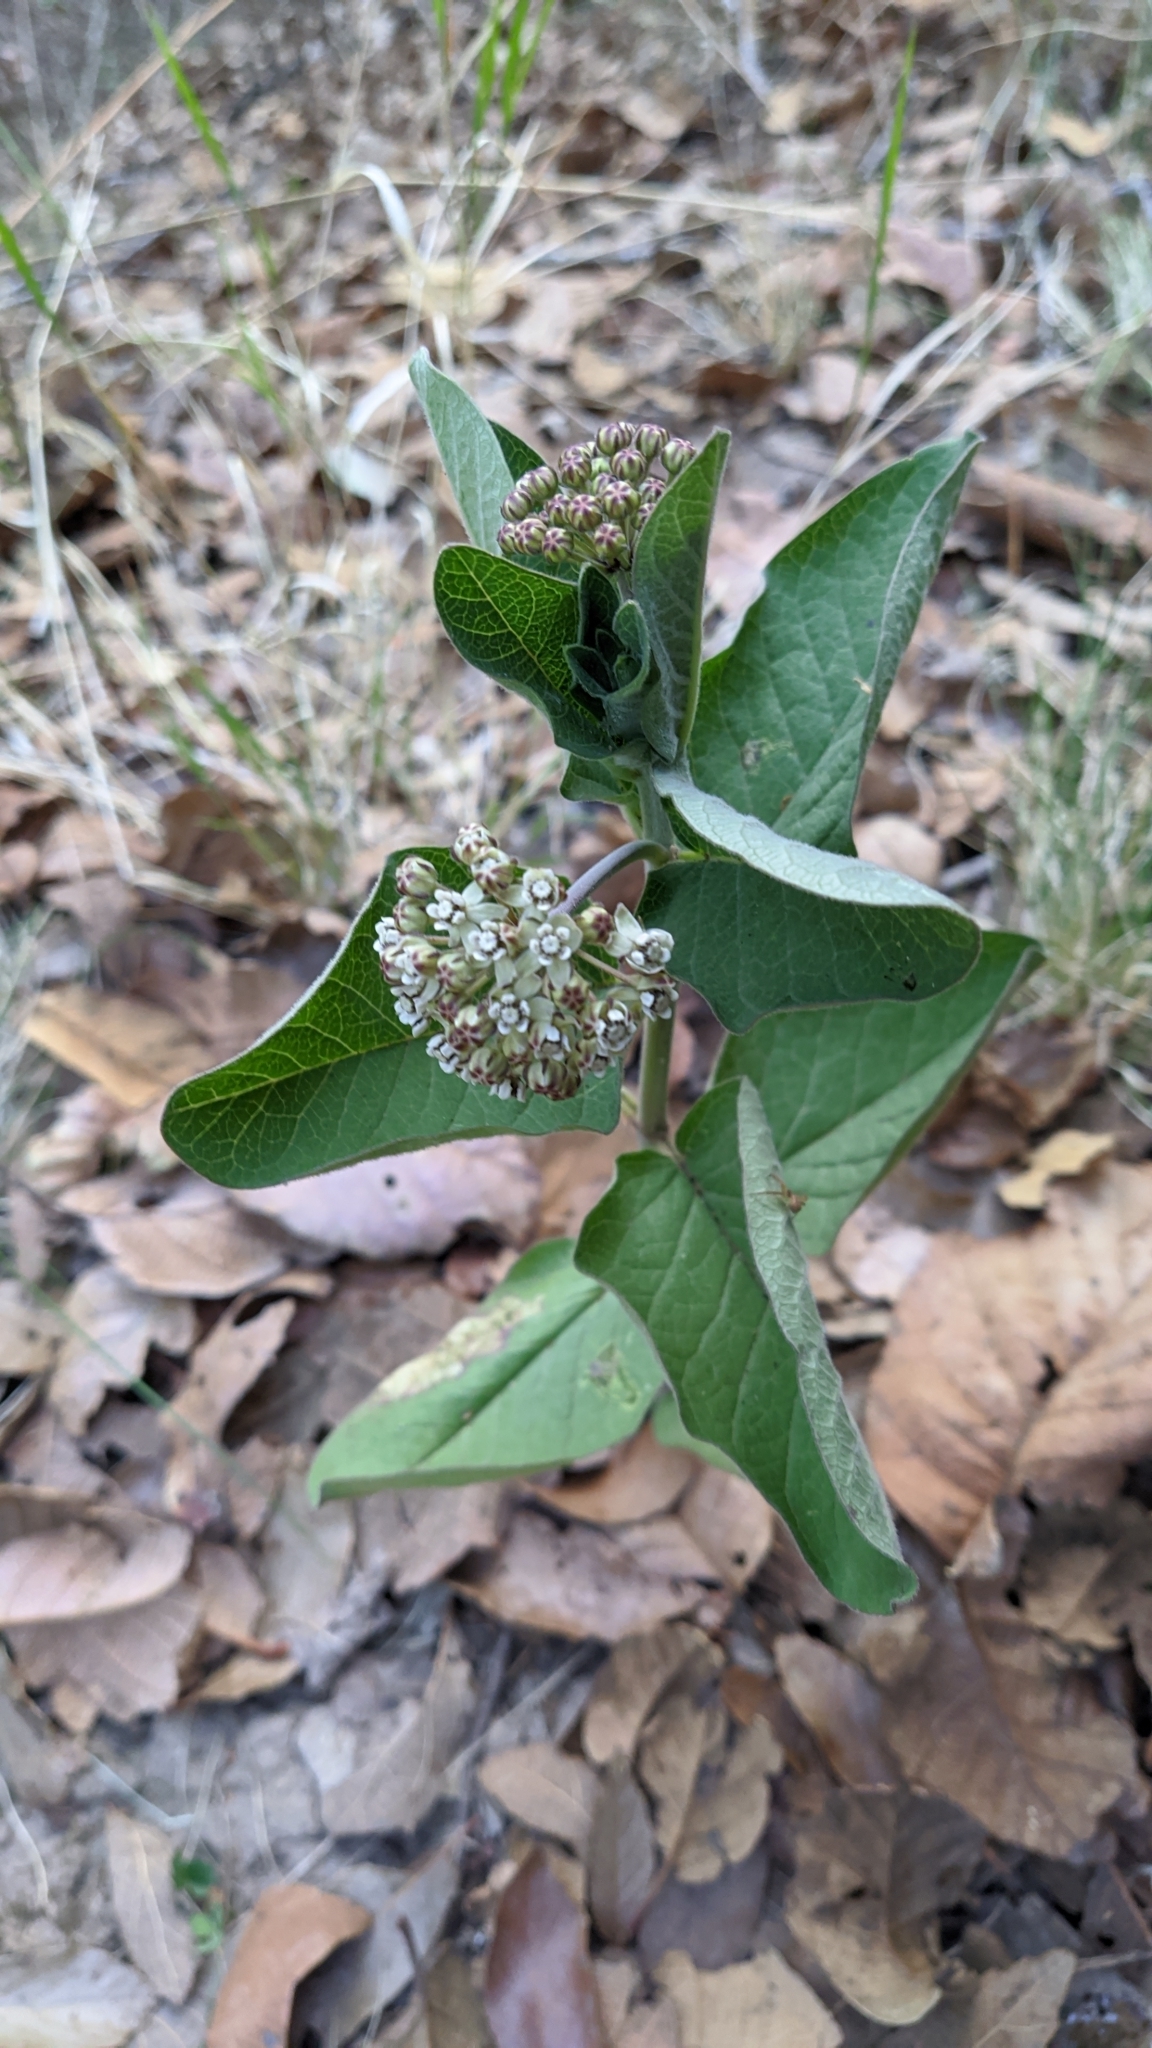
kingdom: Plantae
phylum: Tracheophyta
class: Magnoliopsida
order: Gentianales
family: Apocynaceae
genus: Asclepias
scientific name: Asclepias pringlei
